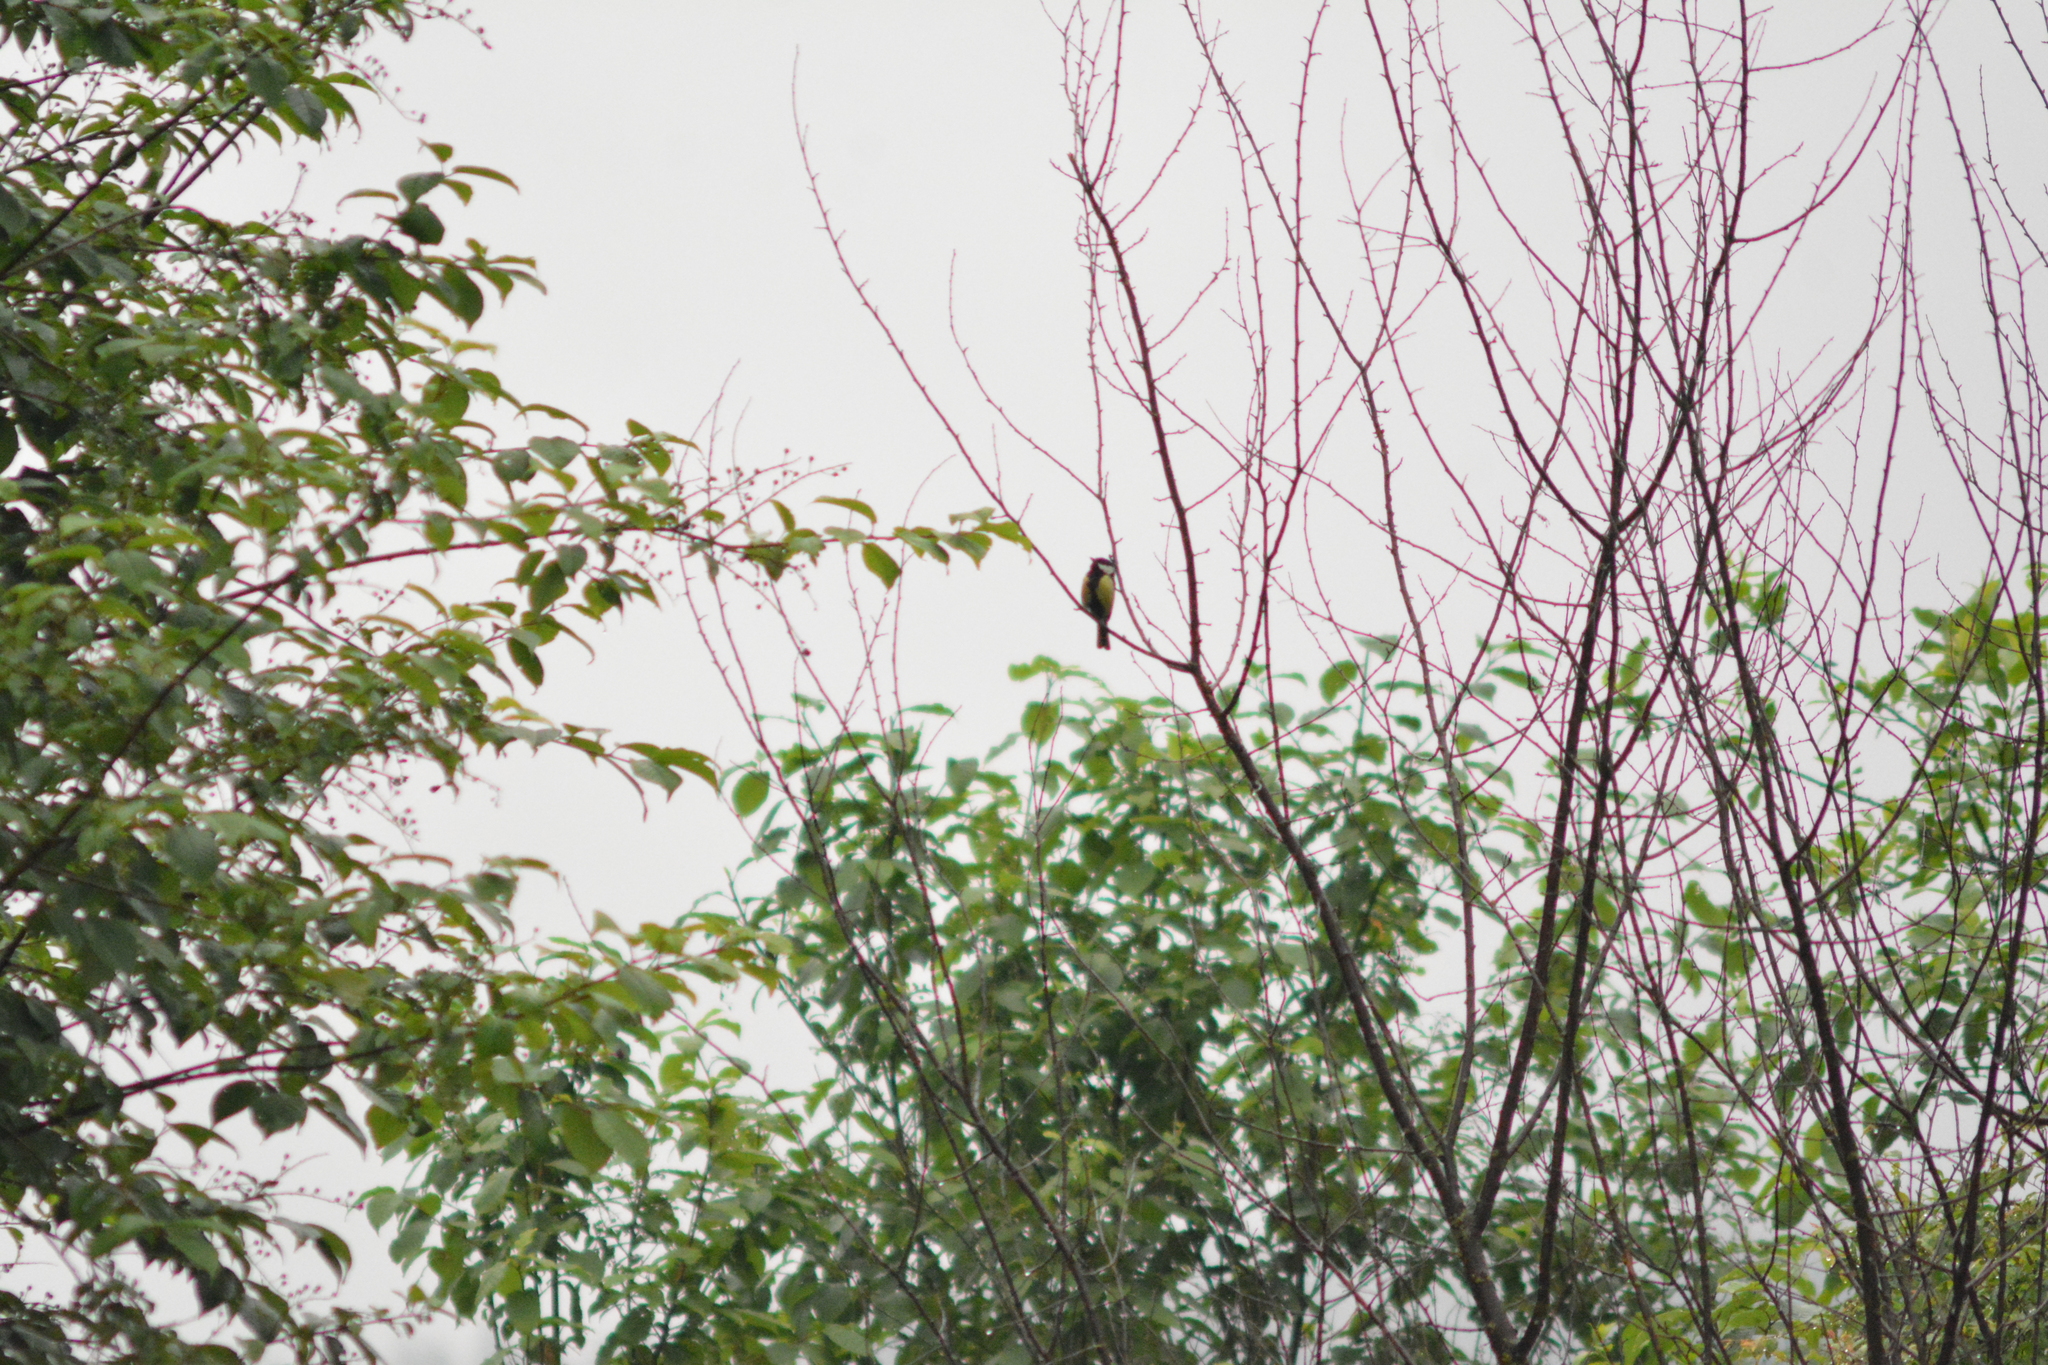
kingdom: Animalia
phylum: Chordata
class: Aves
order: Passeriformes
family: Paridae
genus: Parus
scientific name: Parus major
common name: Great tit
